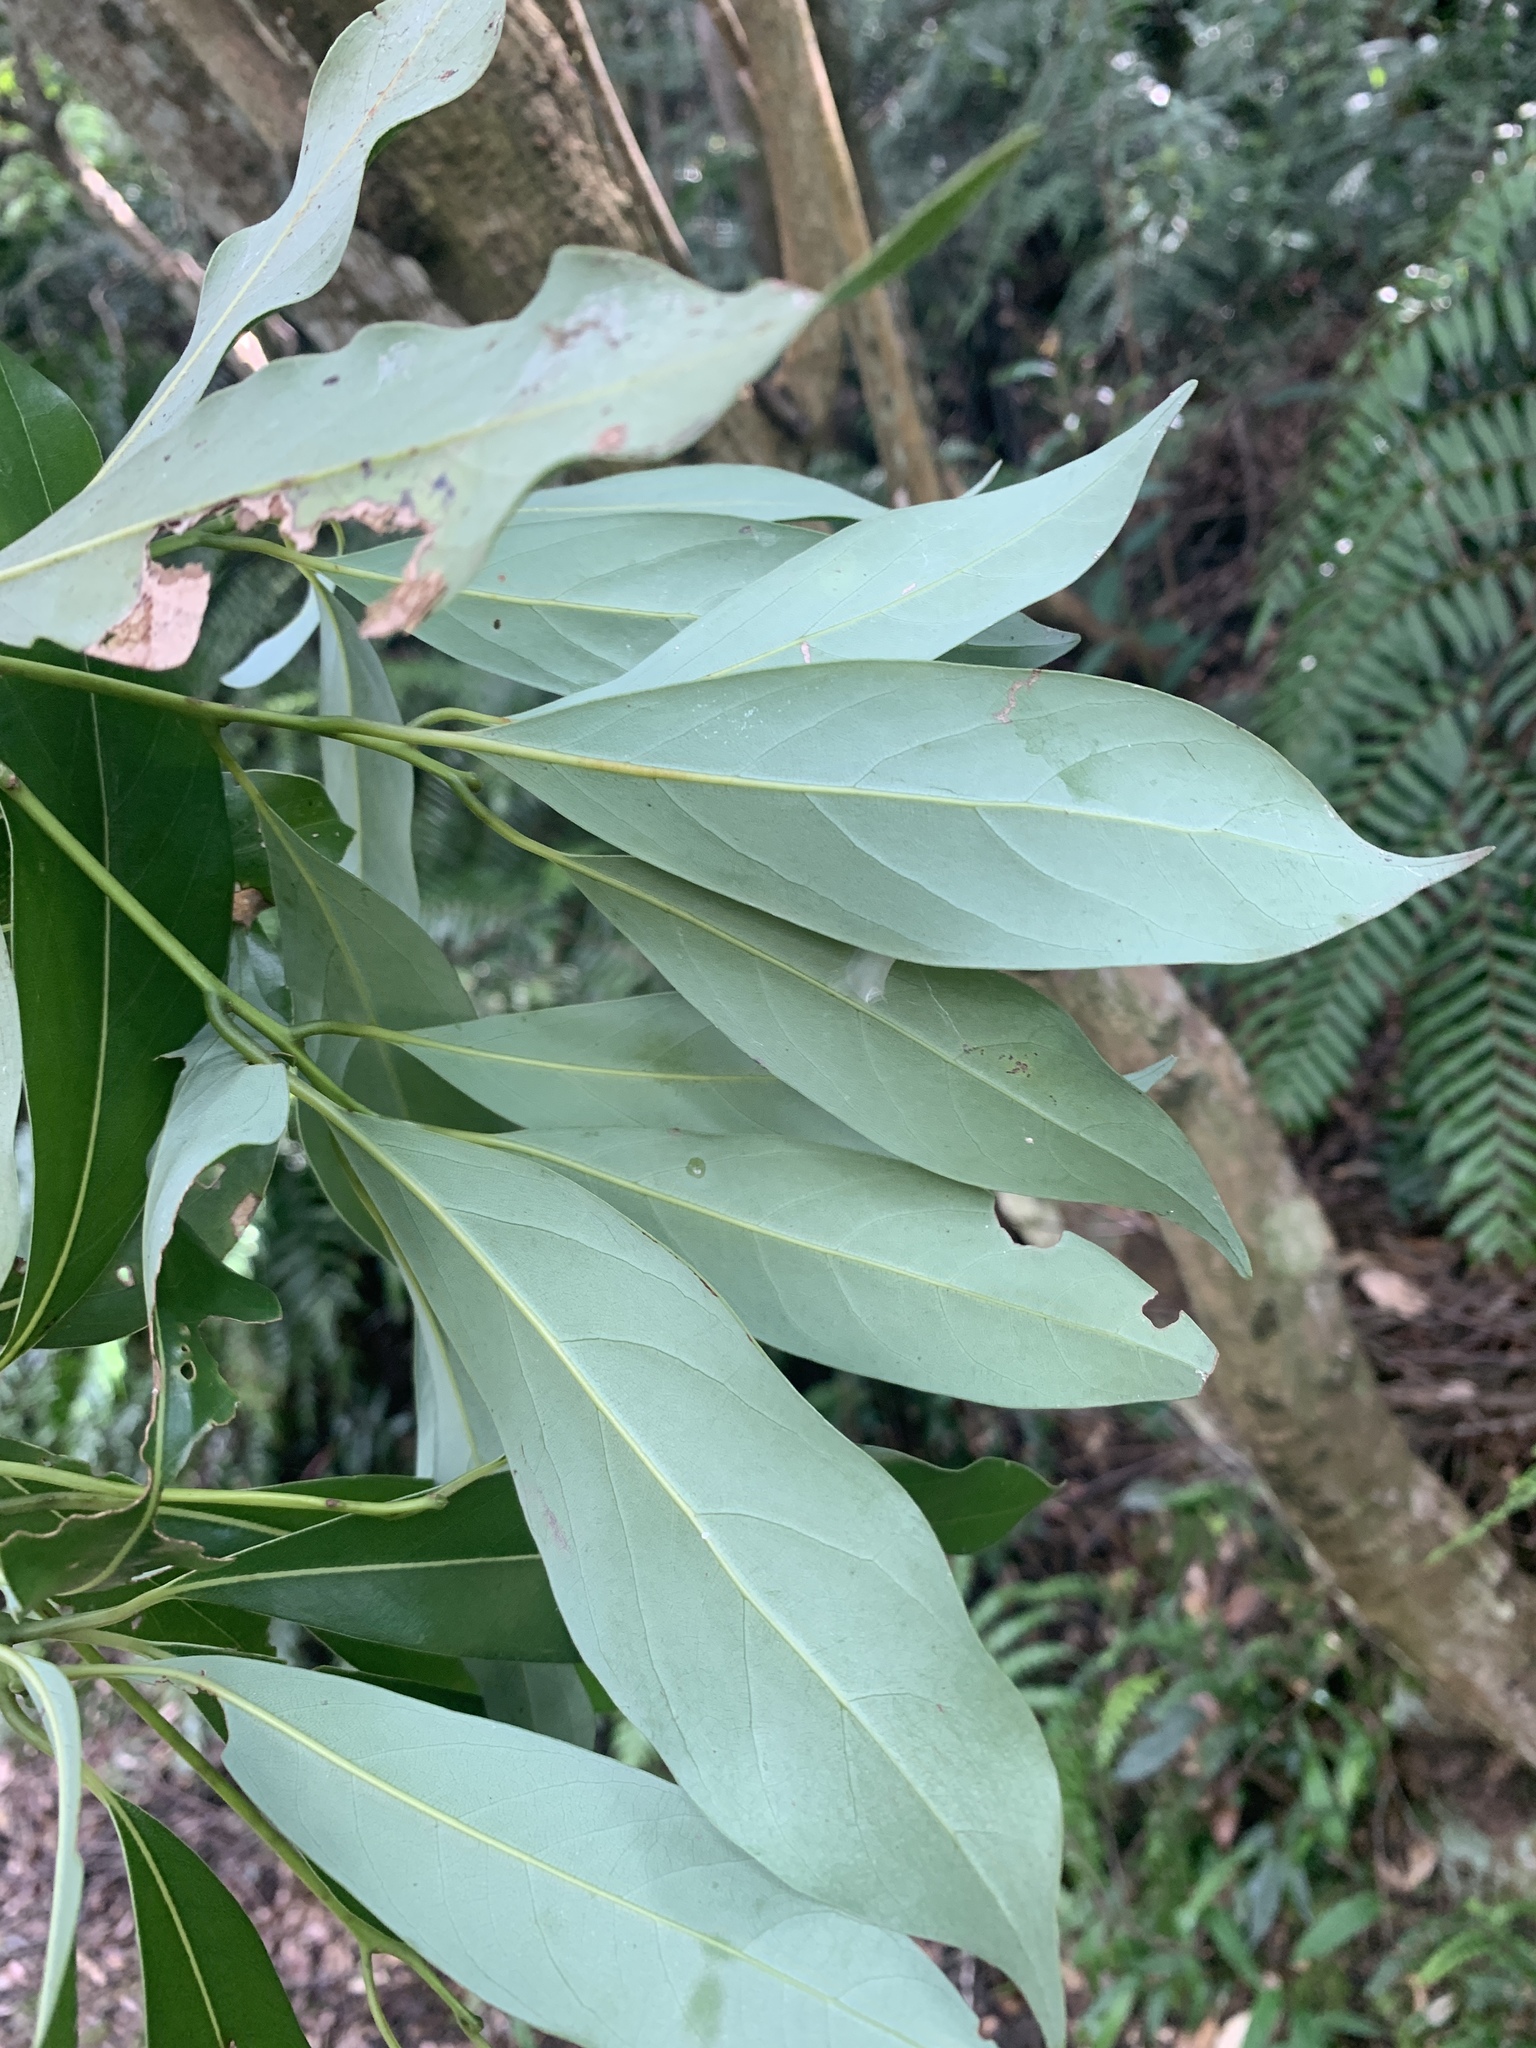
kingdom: Plantae
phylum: Tracheophyta
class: Magnoliopsida
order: Laurales
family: Lauraceae
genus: Machilus
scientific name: Machilus thunbergii
